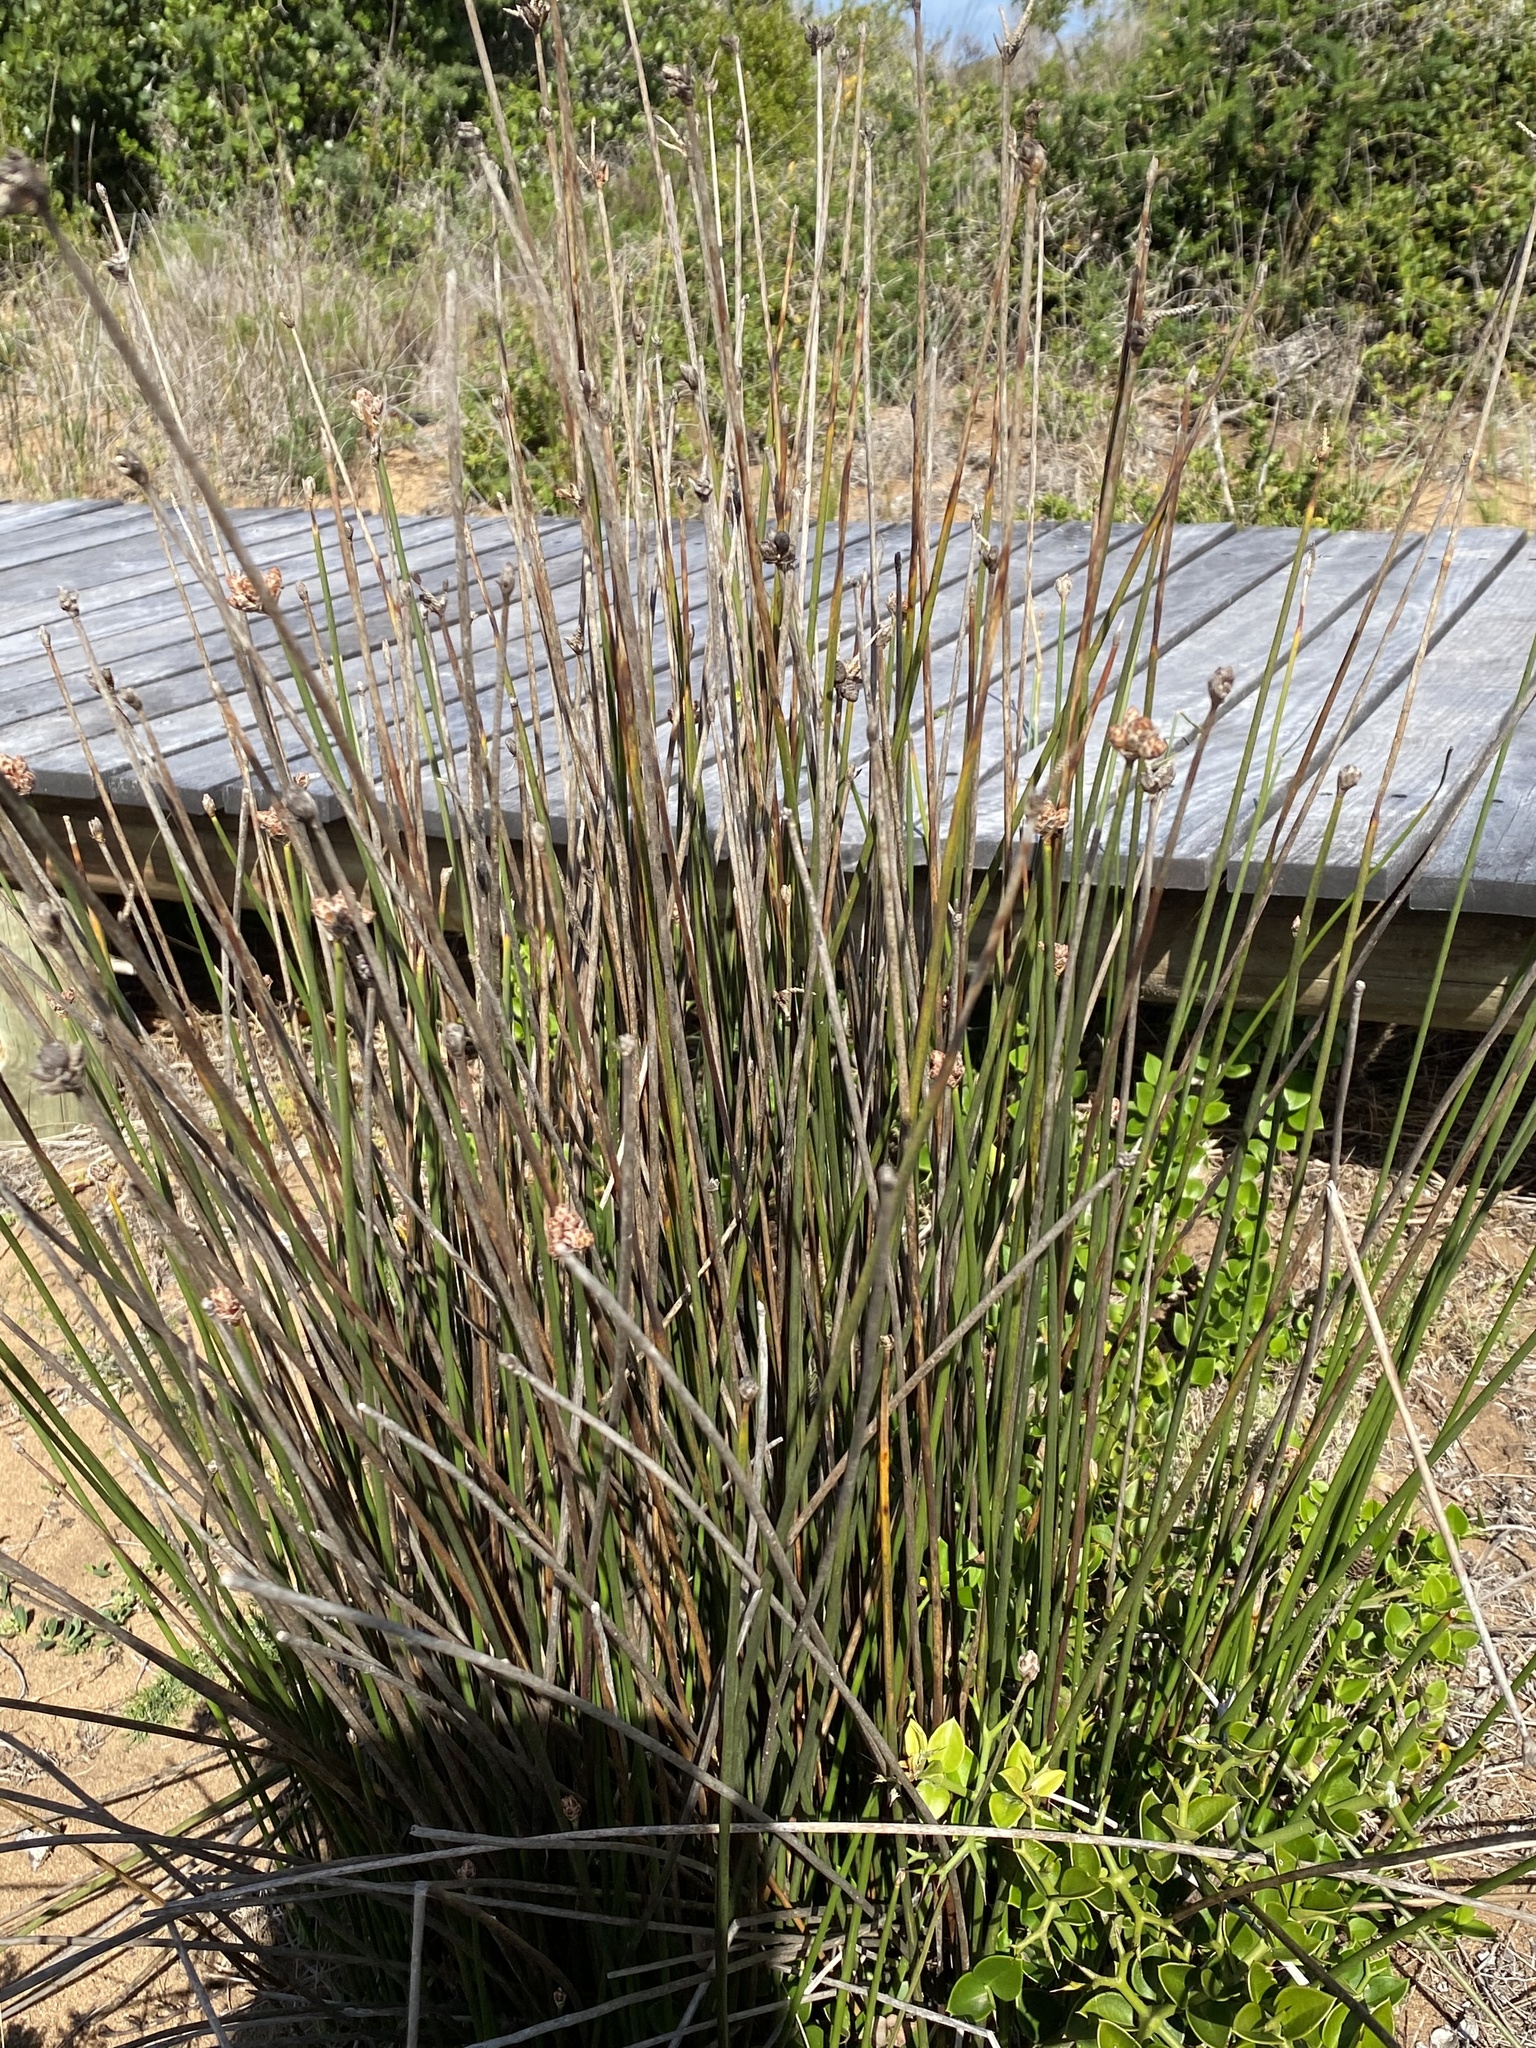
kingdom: Plantae
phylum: Tracheophyta
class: Liliopsida
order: Poales
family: Cyperaceae
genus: Hellmuthia
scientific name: Hellmuthia membranacea
